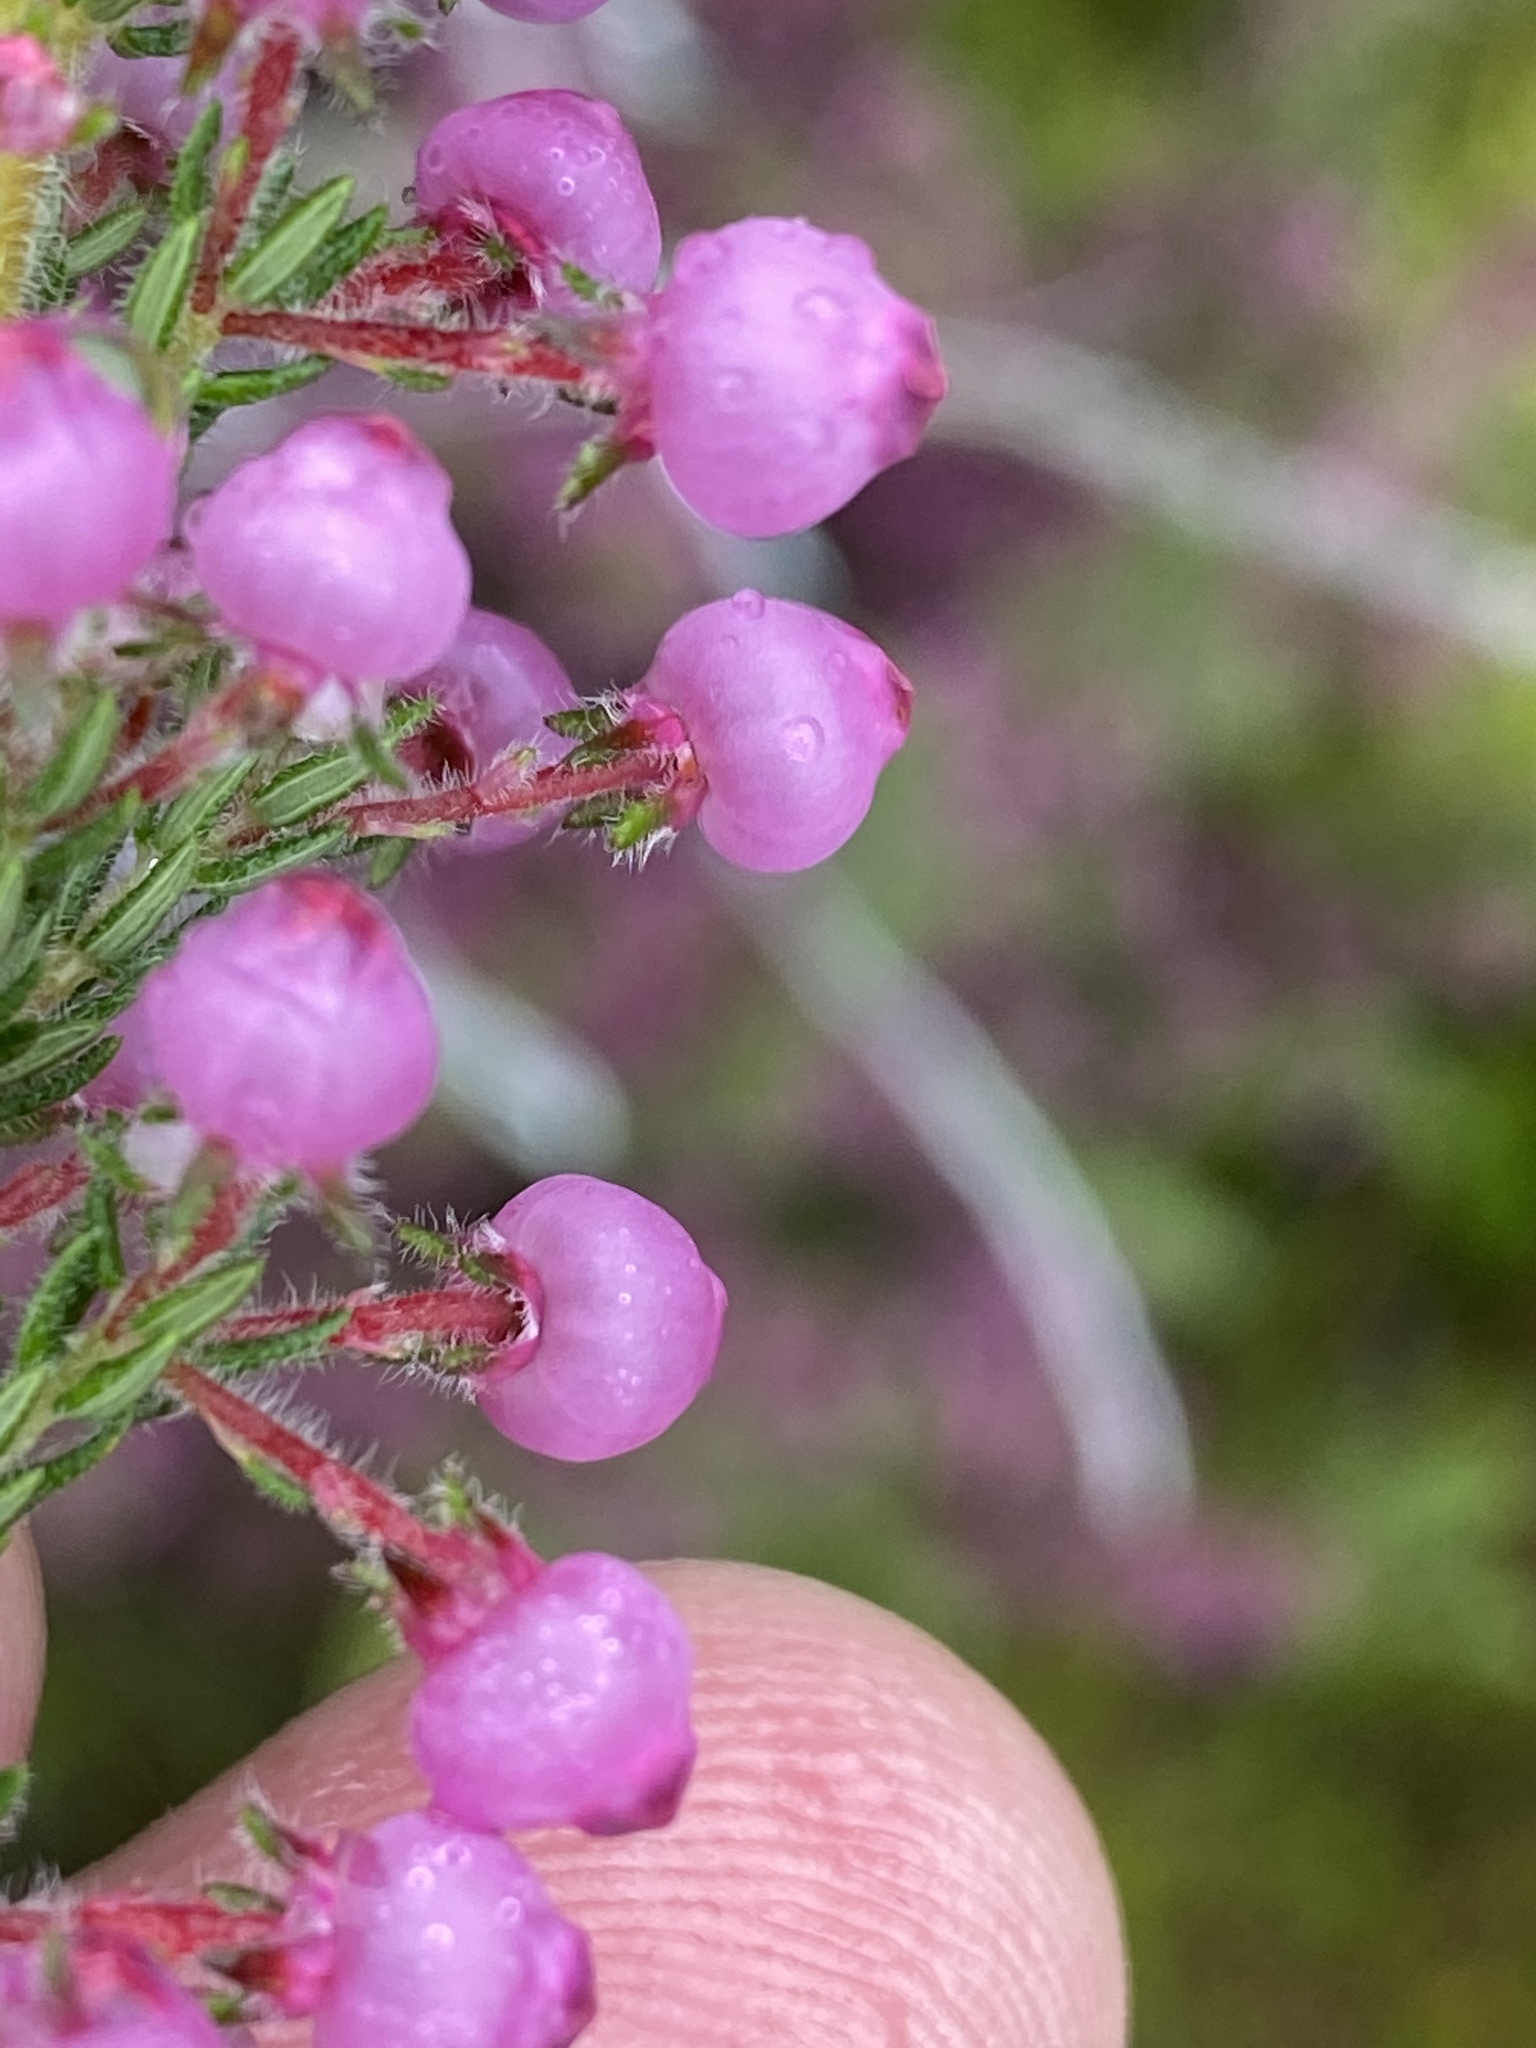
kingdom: Plantae
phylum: Tracheophyta
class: Magnoliopsida
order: Ericales
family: Ericaceae
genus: Erica
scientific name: Erica bergiana
